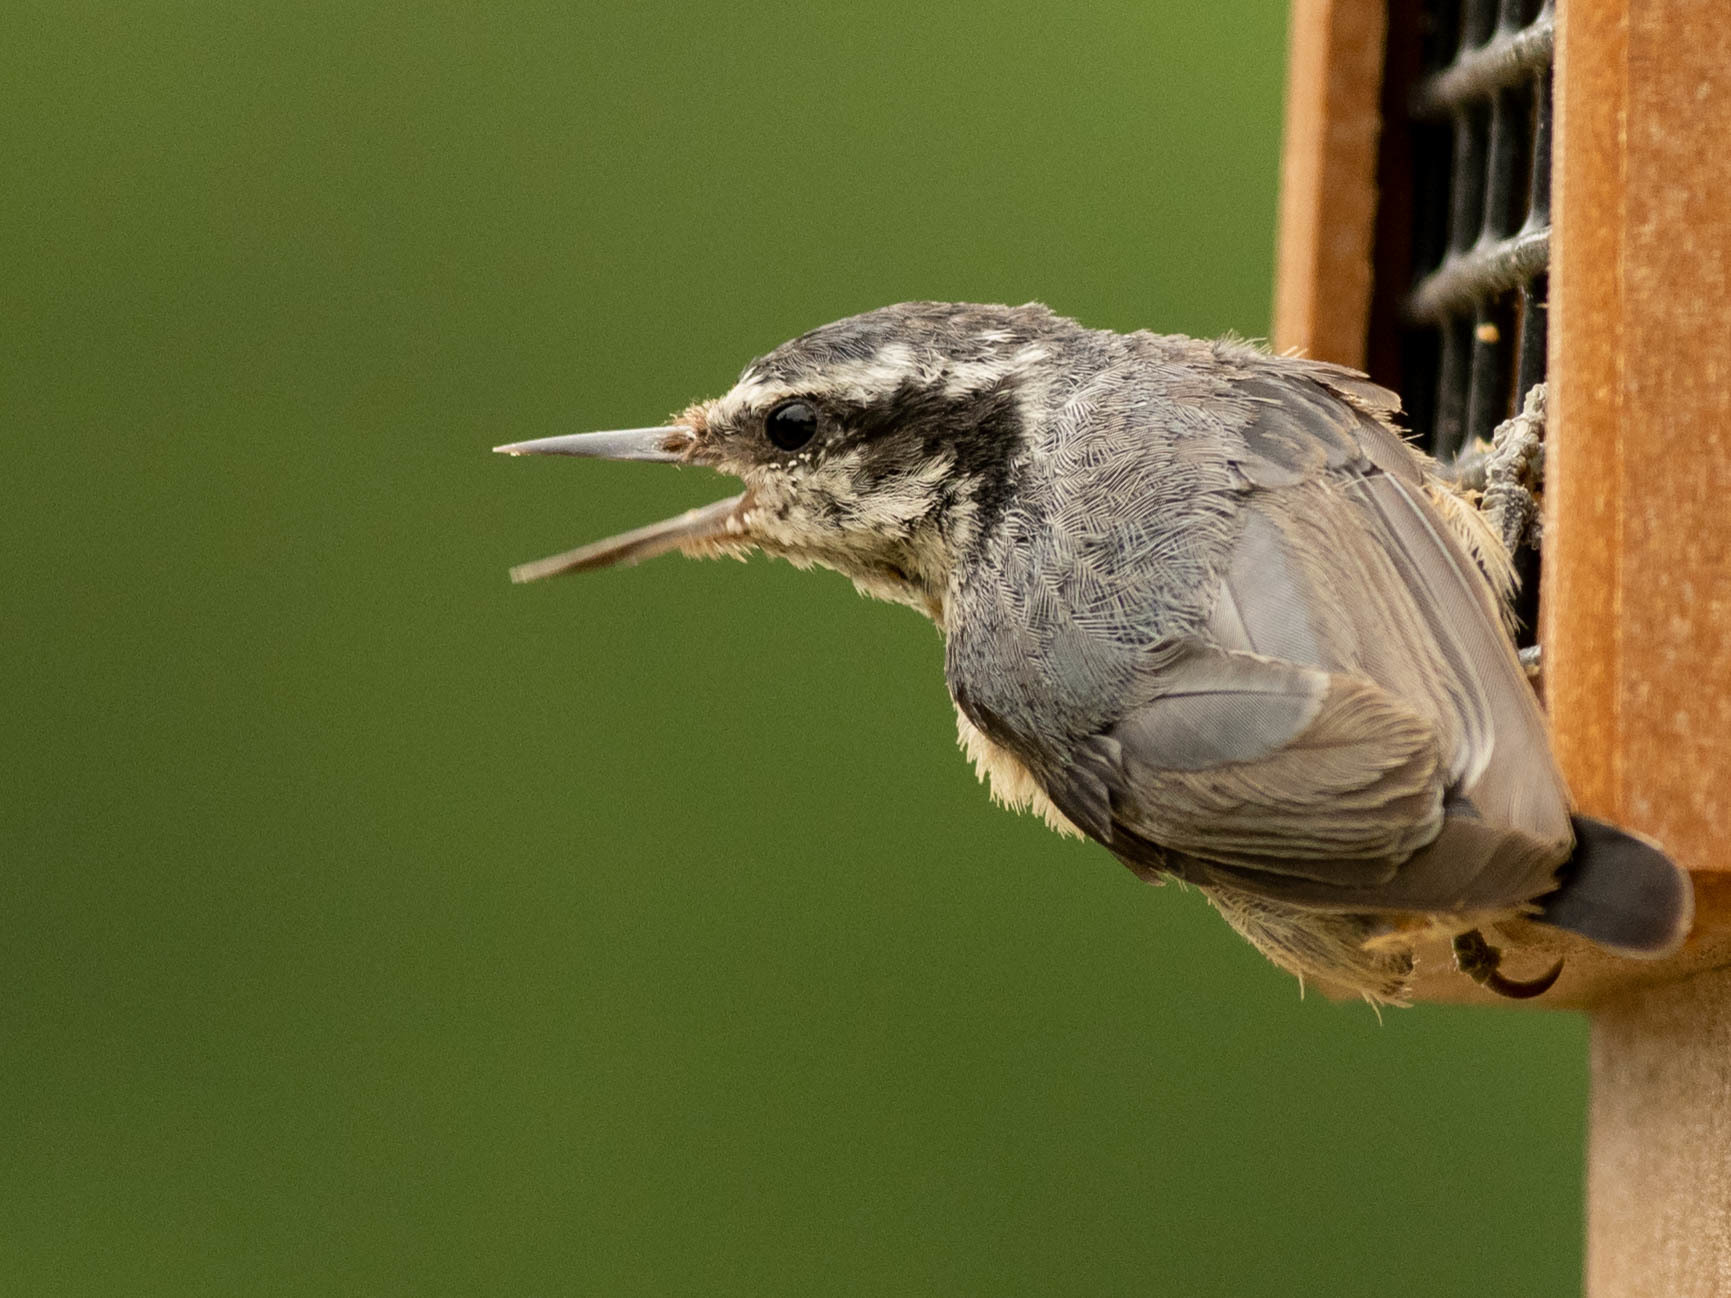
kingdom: Animalia
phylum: Chordata
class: Aves
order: Passeriformes
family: Sittidae
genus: Sitta
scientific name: Sitta canadensis
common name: Red-breasted nuthatch
